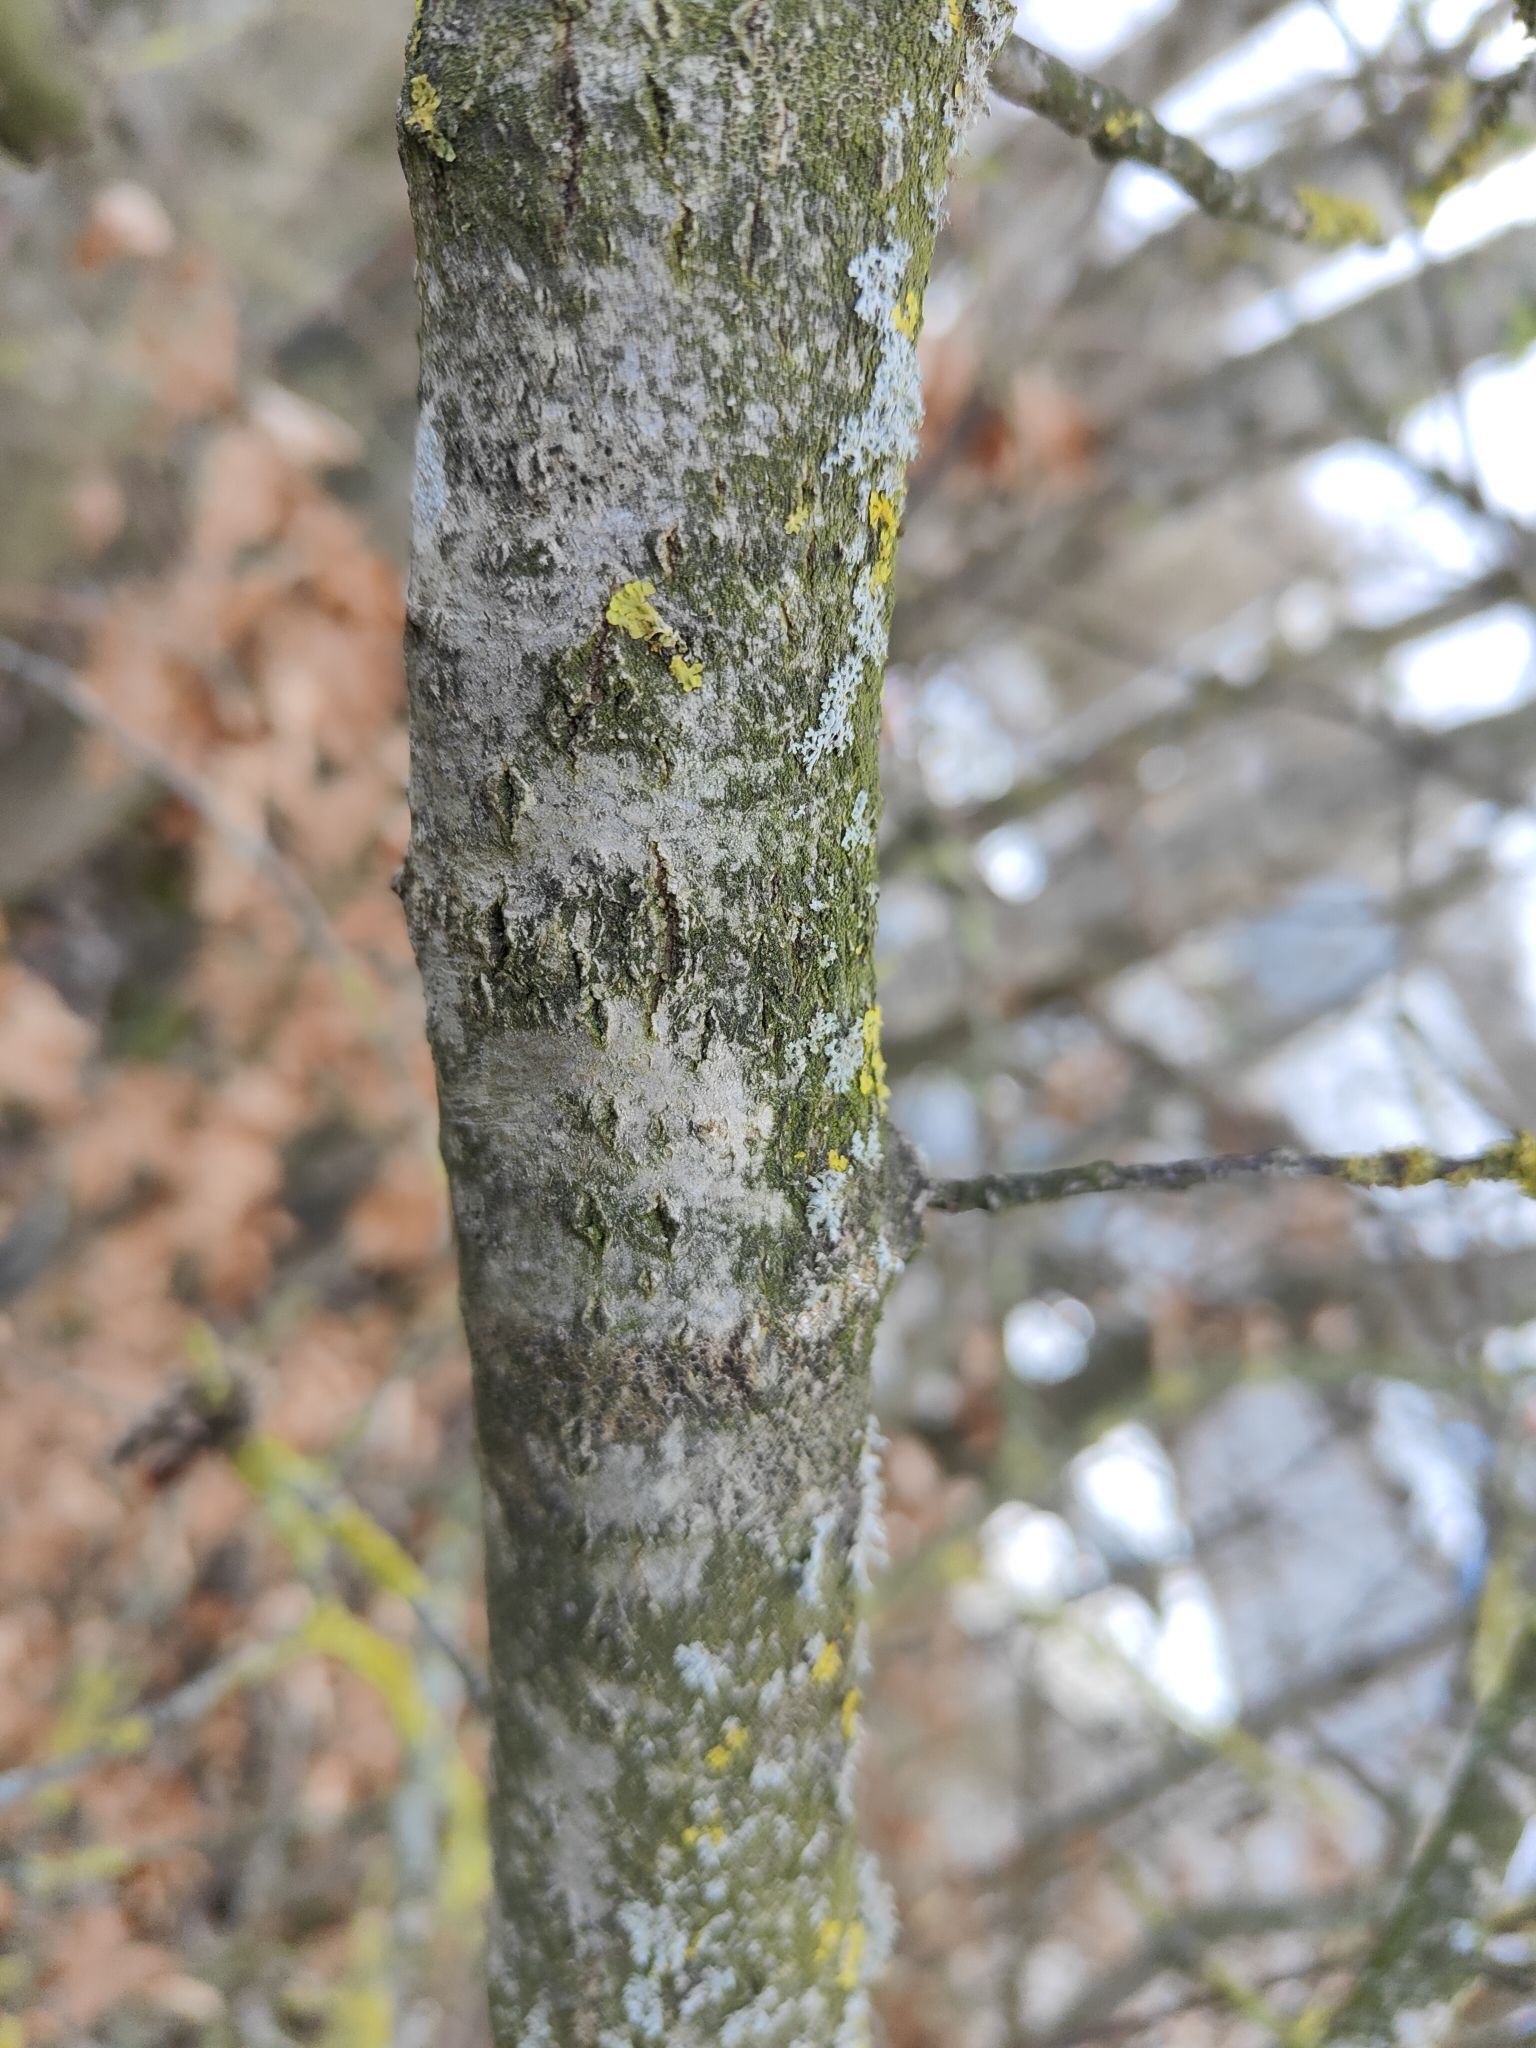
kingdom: Plantae
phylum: Tracheophyta
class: Magnoliopsida
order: Malpighiales
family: Salicaceae
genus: Populus
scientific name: Populus tremula
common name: European aspen
